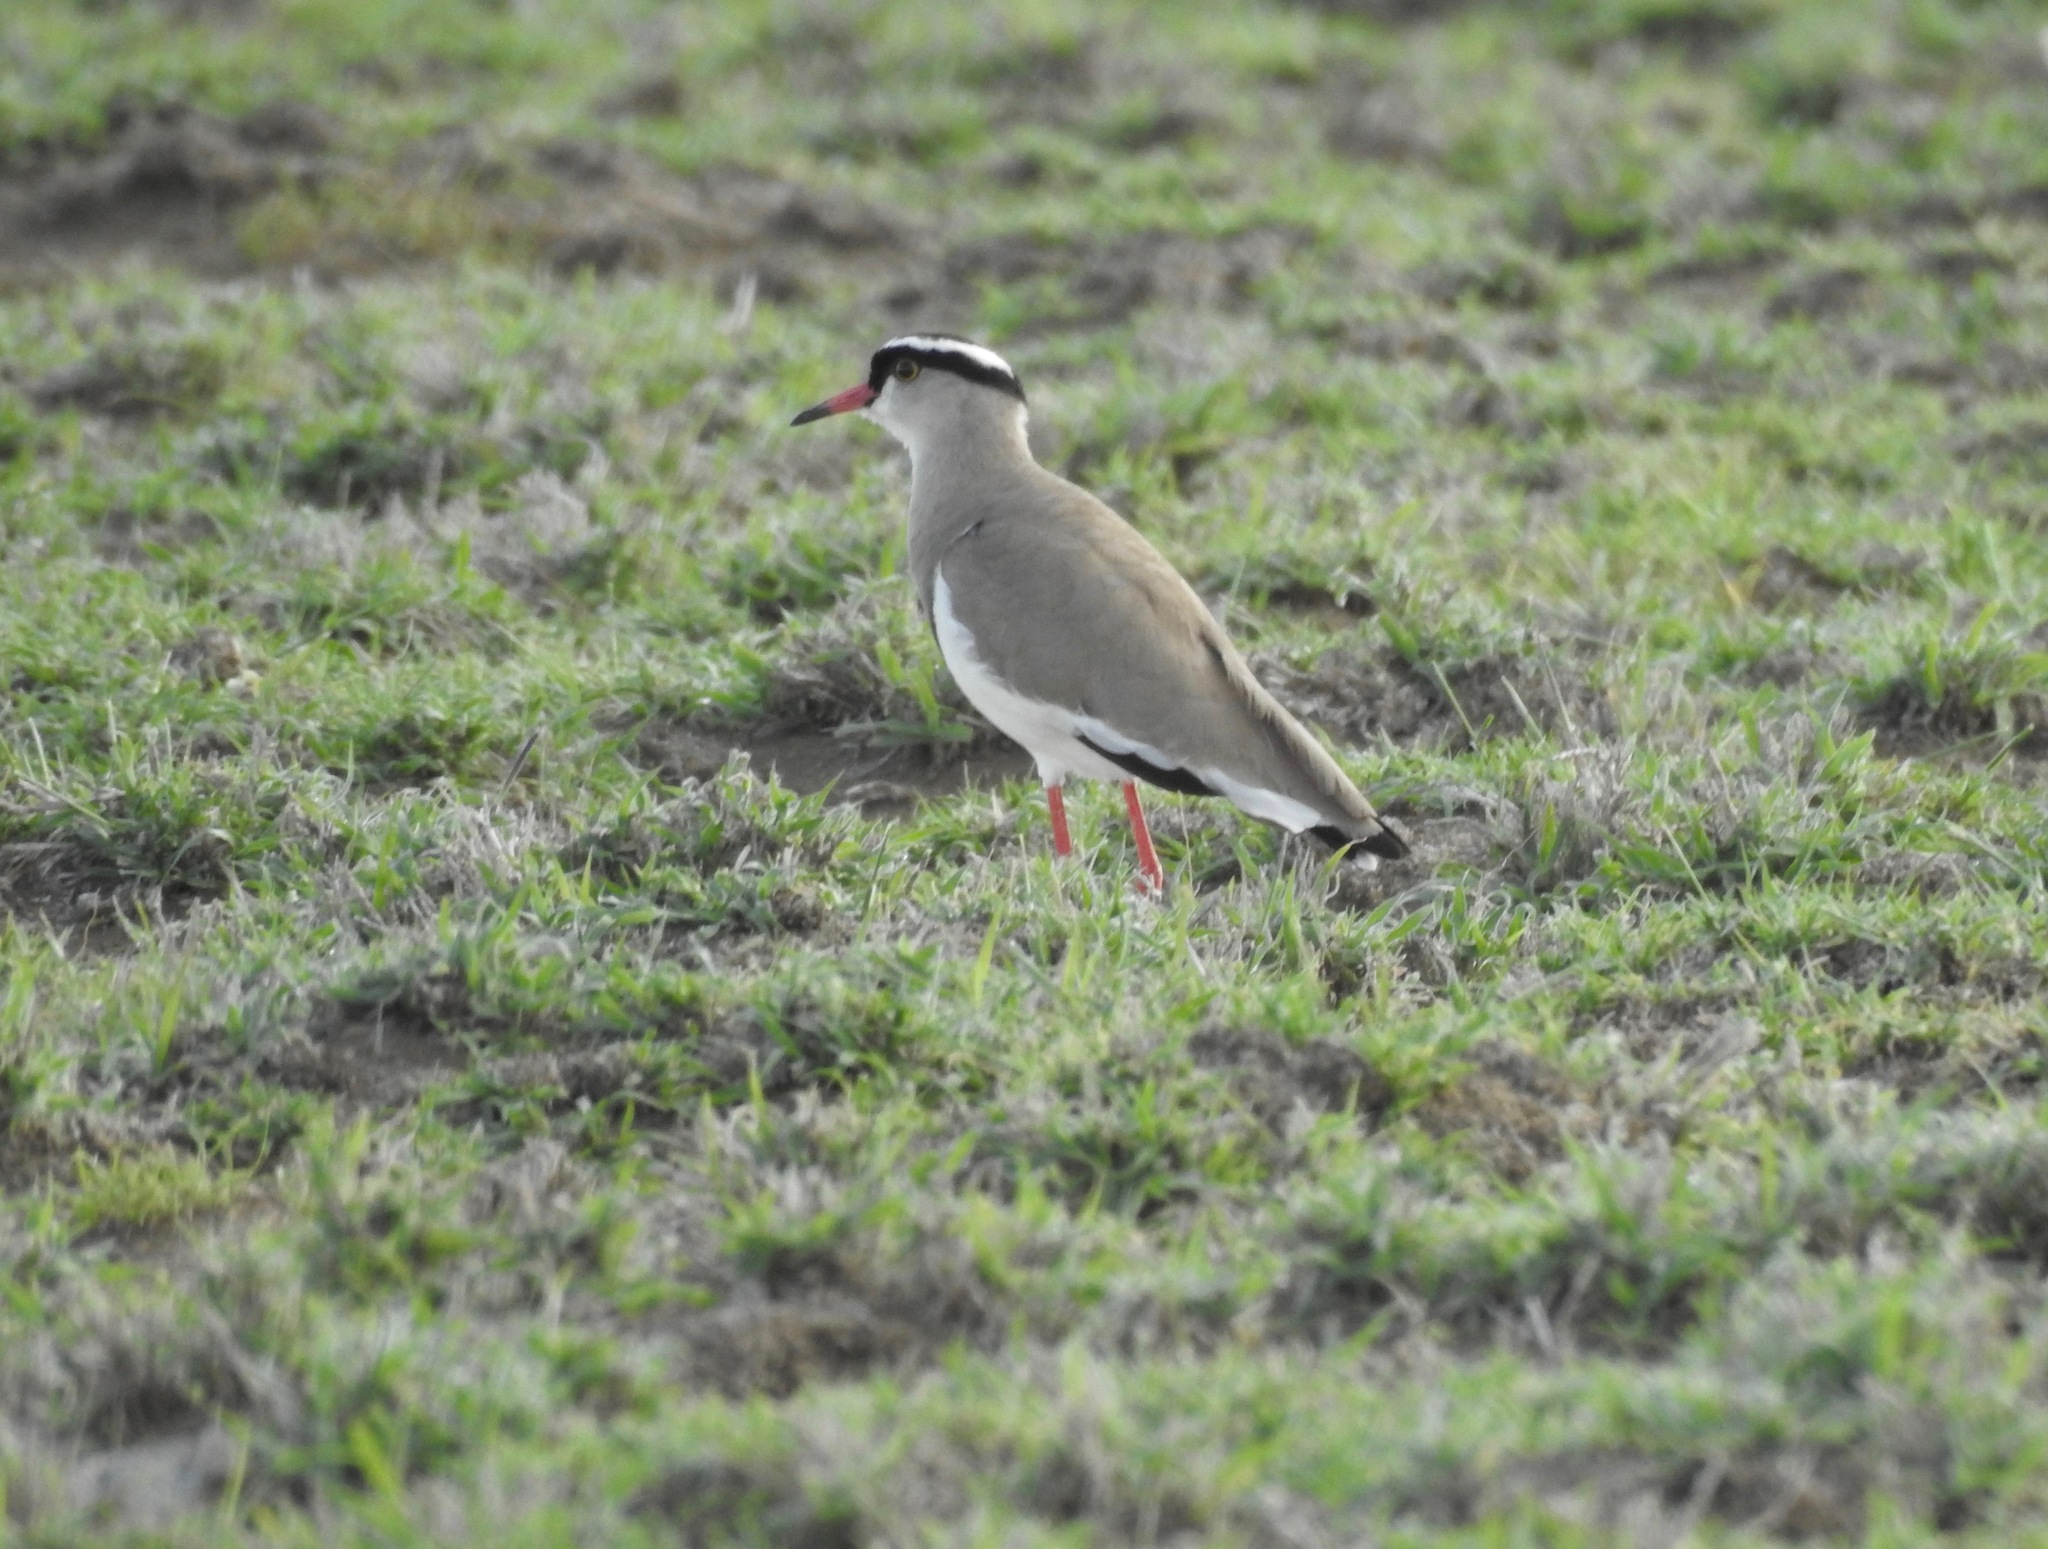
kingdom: Animalia
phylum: Chordata
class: Aves
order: Charadriiformes
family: Charadriidae
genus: Vanellus
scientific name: Vanellus coronatus
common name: Crowned lapwing
